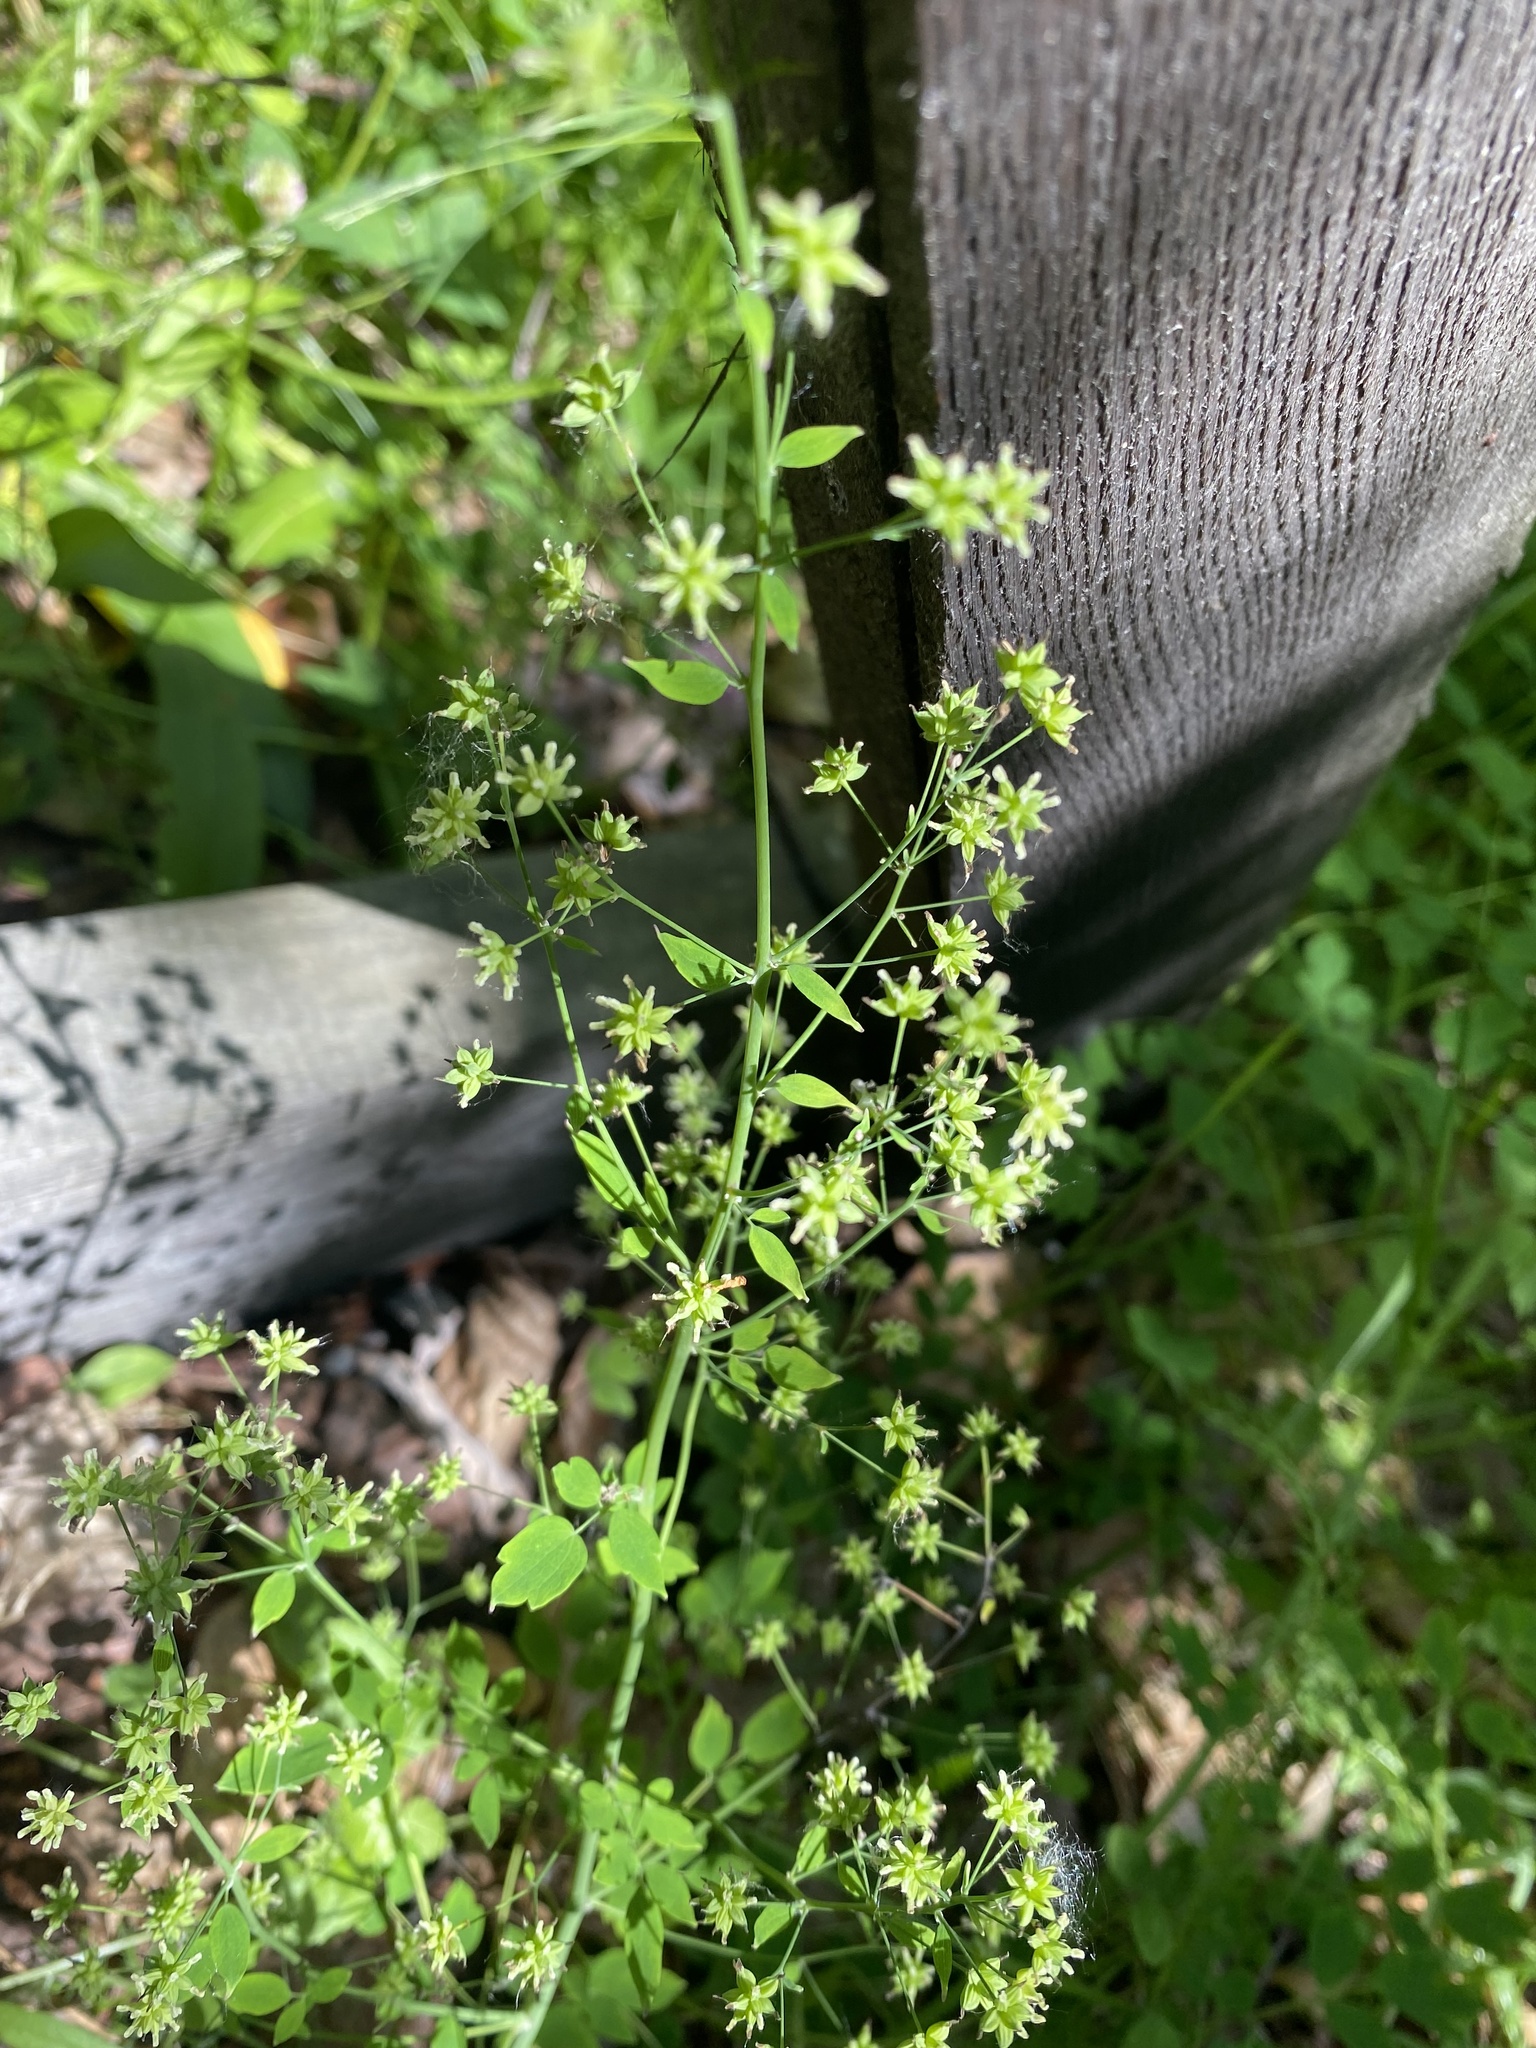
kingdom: Plantae
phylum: Tracheophyta
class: Magnoliopsida
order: Ranunculales
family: Ranunculaceae
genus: Thalictrum
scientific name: Thalictrum minus
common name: Lesser meadow-rue
